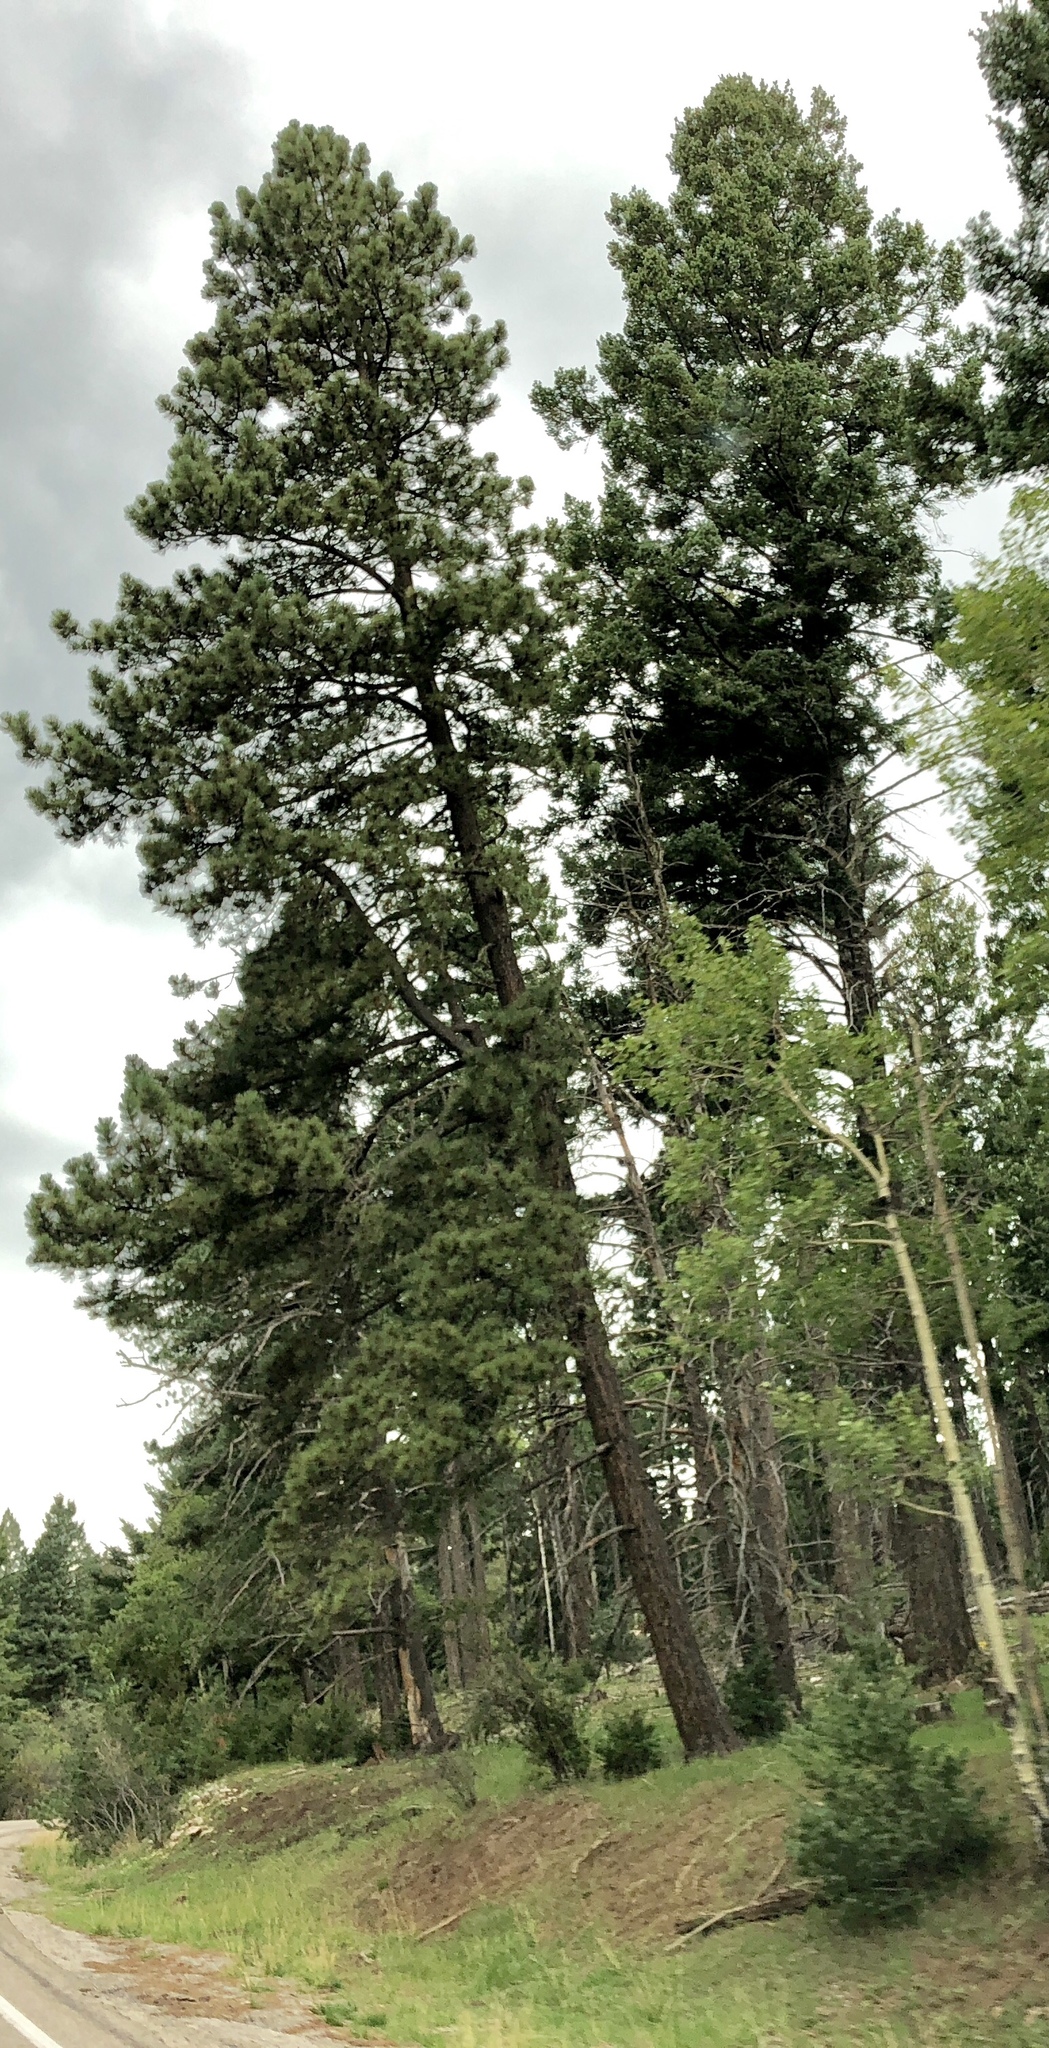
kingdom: Plantae
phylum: Tracheophyta
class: Pinopsida
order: Pinales
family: Pinaceae
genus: Pinus
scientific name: Pinus ponderosa
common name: Western yellow-pine
